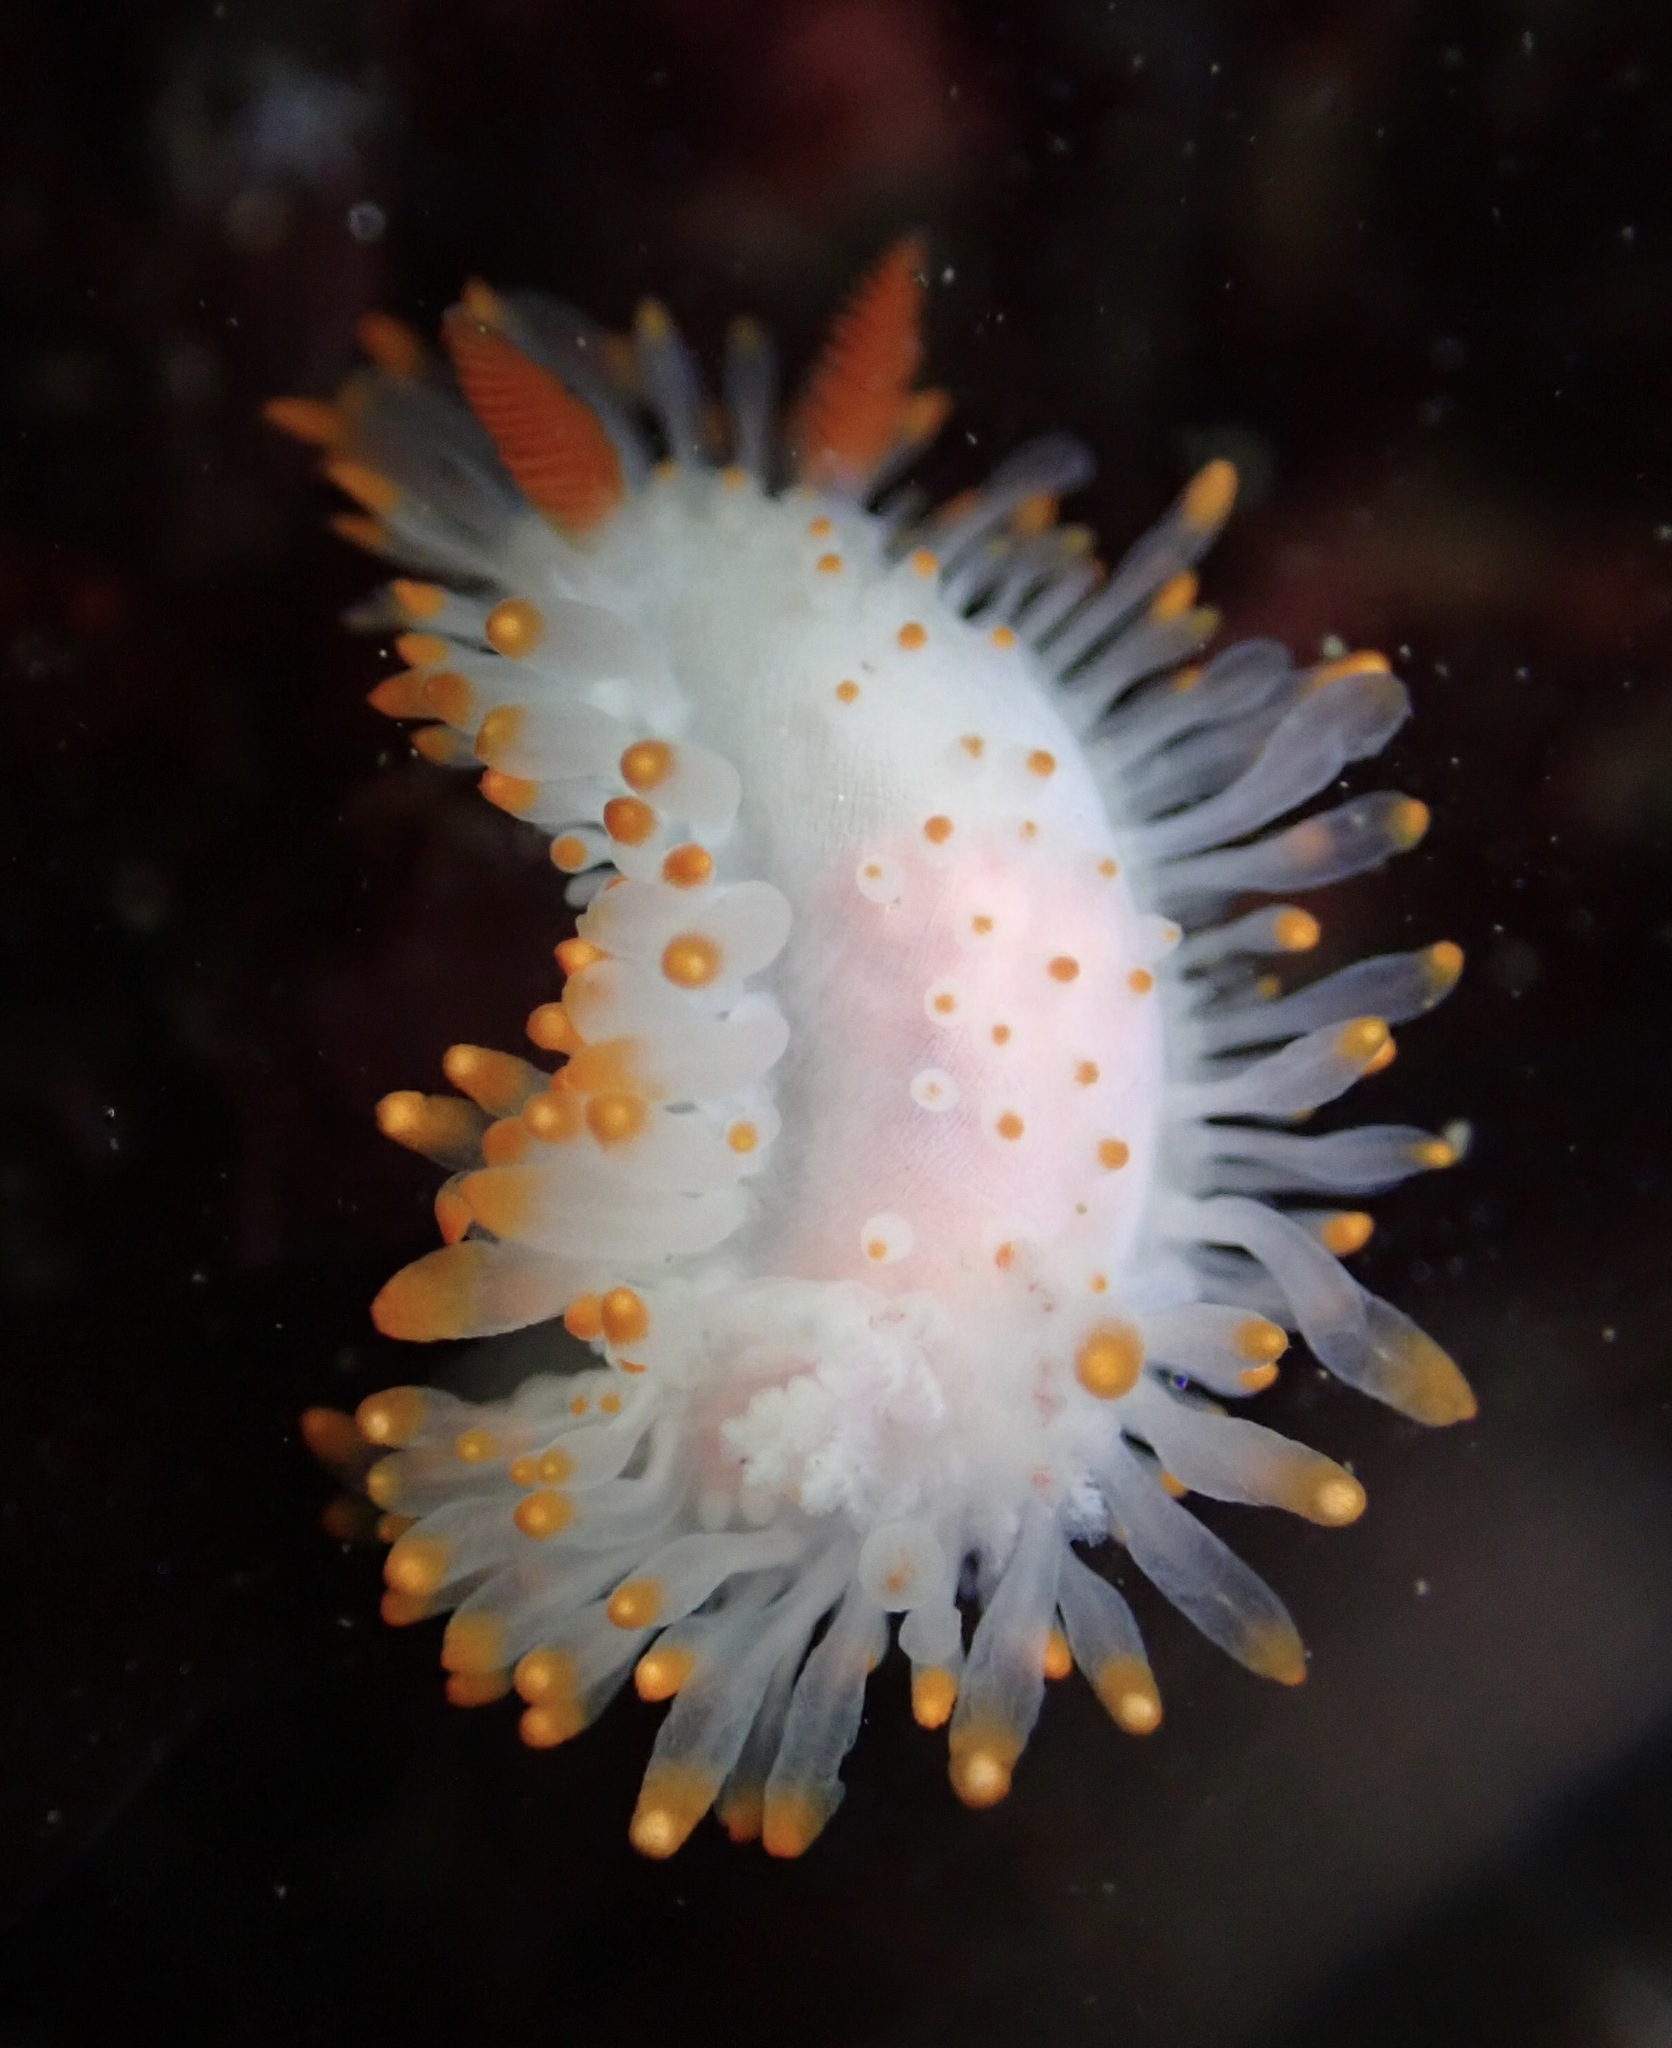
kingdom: Animalia
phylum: Mollusca
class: Gastropoda
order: Nudibranchia
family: Polyceridae
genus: Limacia
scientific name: Limacia cockerelli
